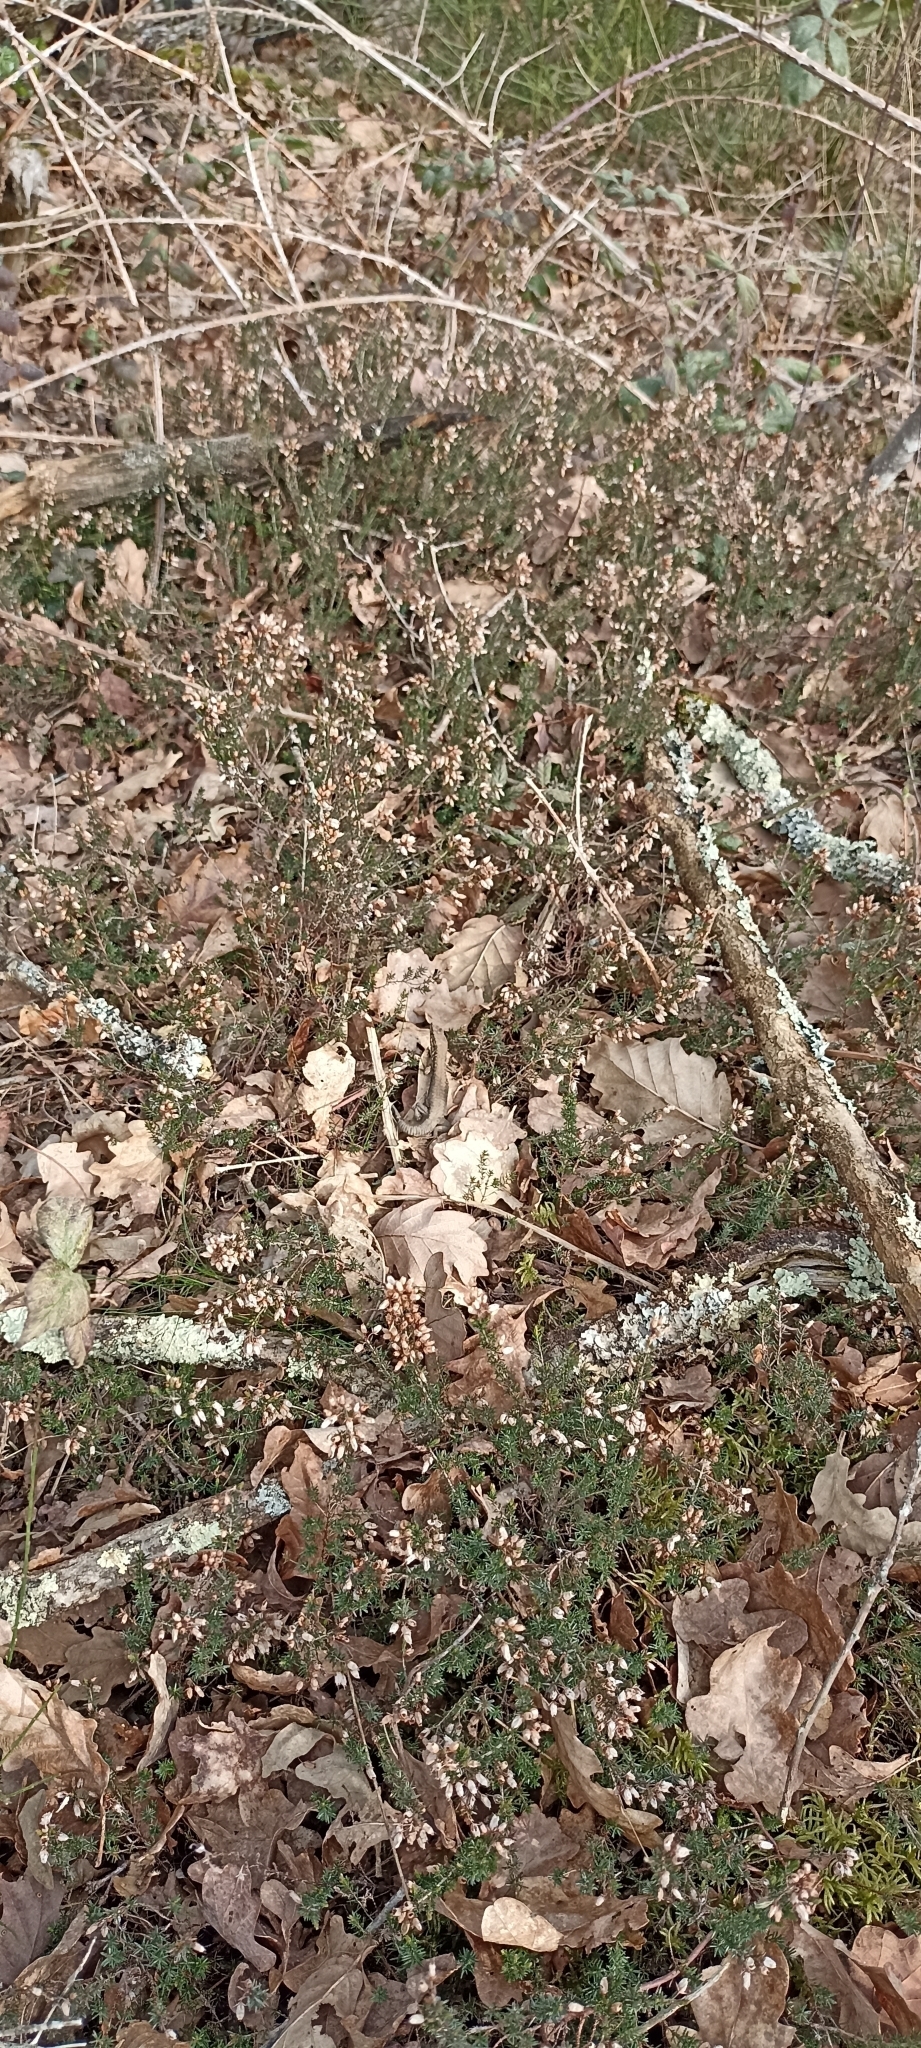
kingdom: Animalia
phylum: Chordata
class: Squamata
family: Lacertidae
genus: Podarcis
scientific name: Podarcis muralis
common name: Common wall lizard
